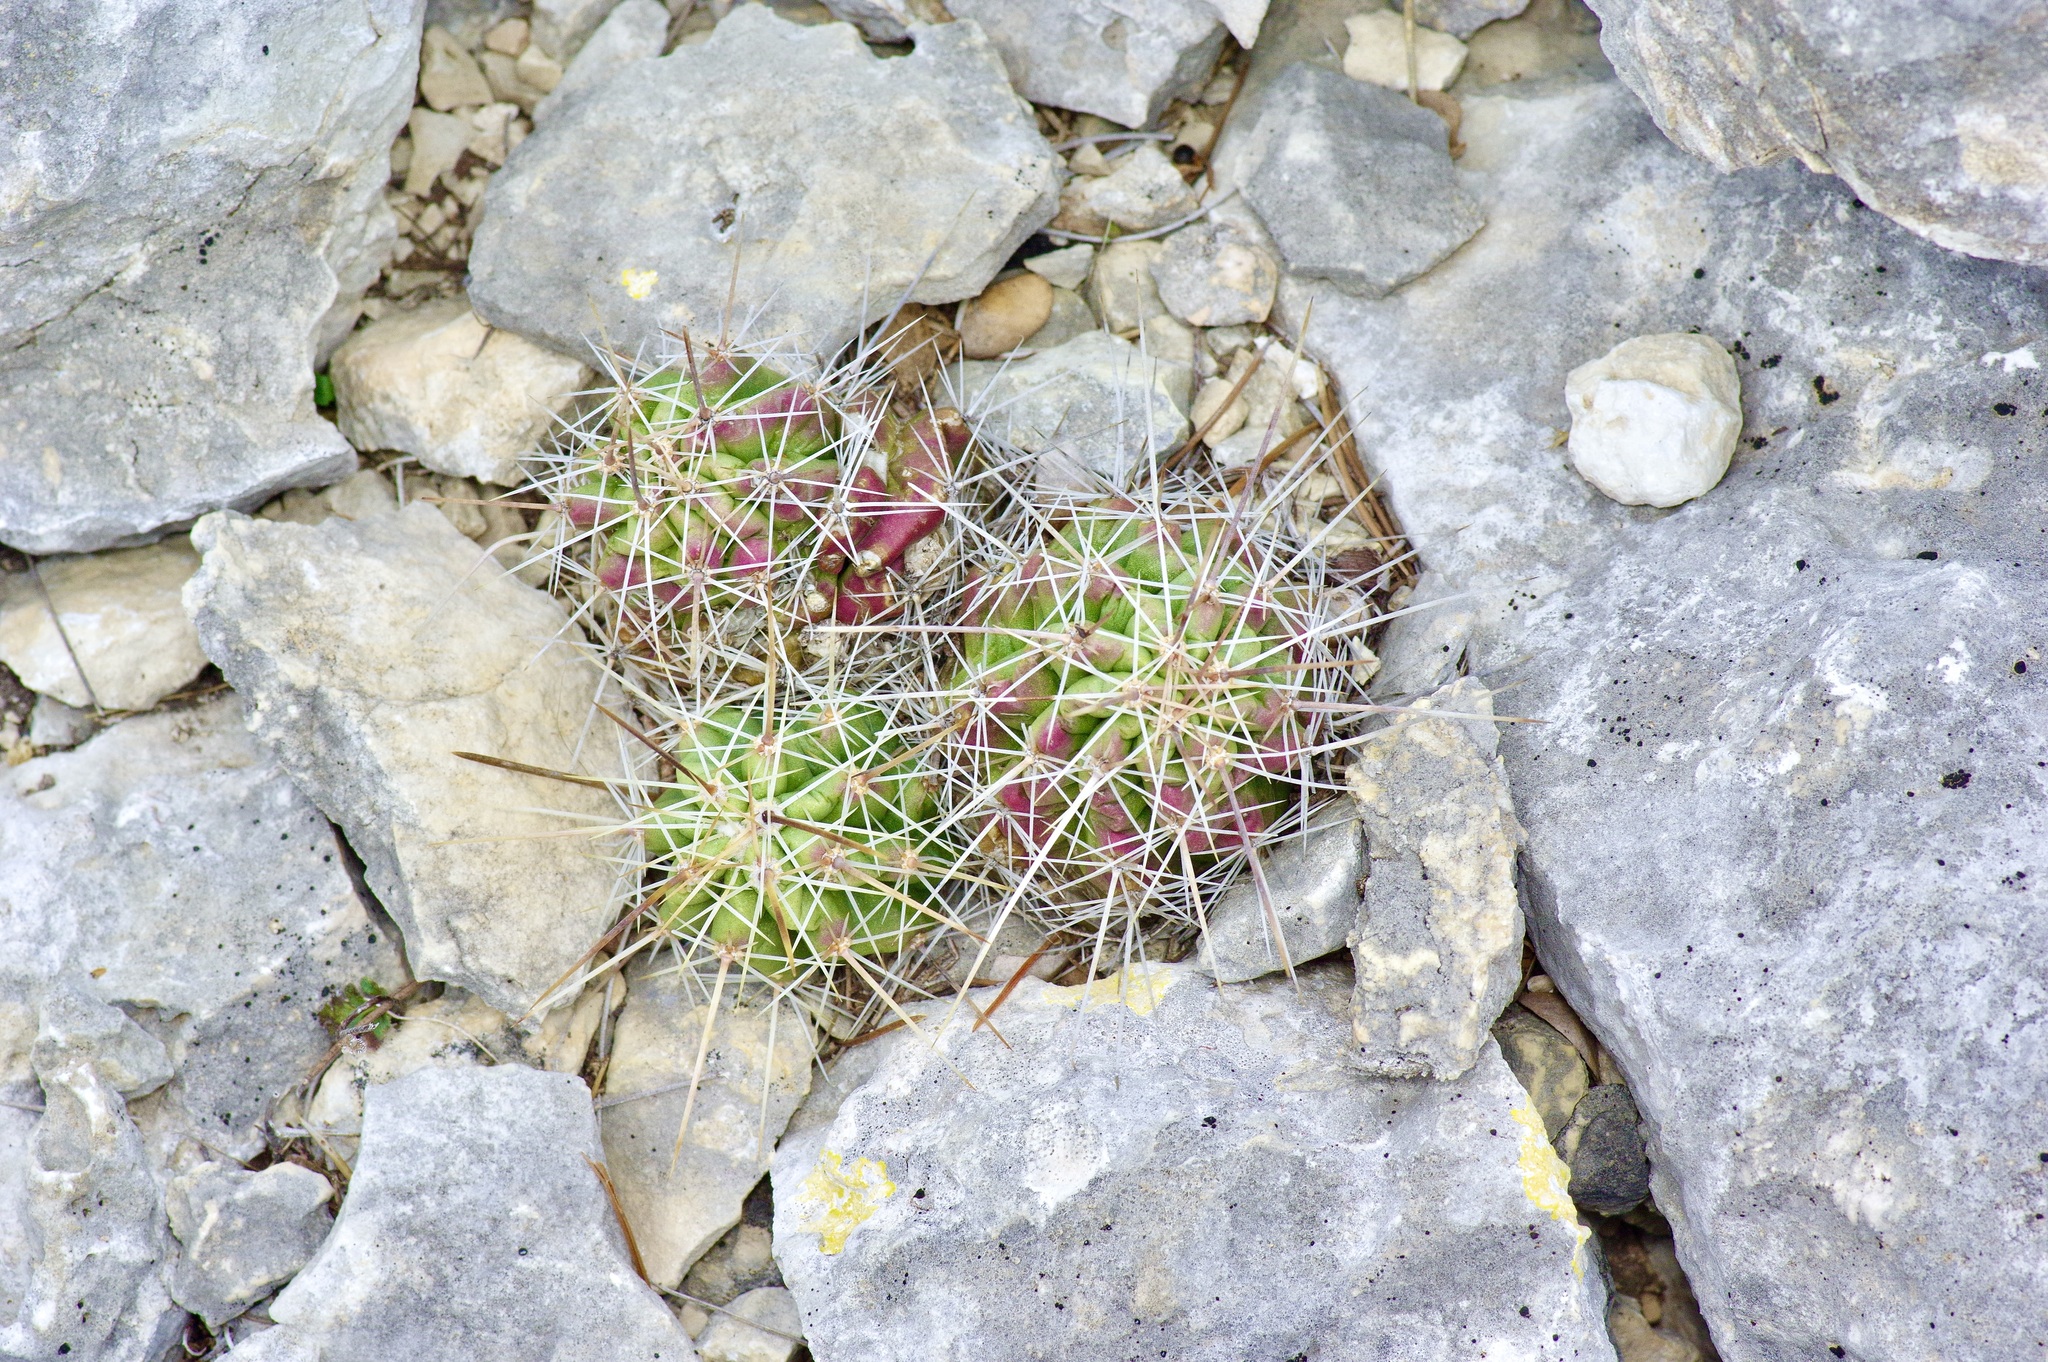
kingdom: Plantae
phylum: Tracheophyta
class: Magnoliopsida
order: Caryophyllales
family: Cactaceae
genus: Echinocereus
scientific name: Echinocereus enneacanthus
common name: Pitaya
